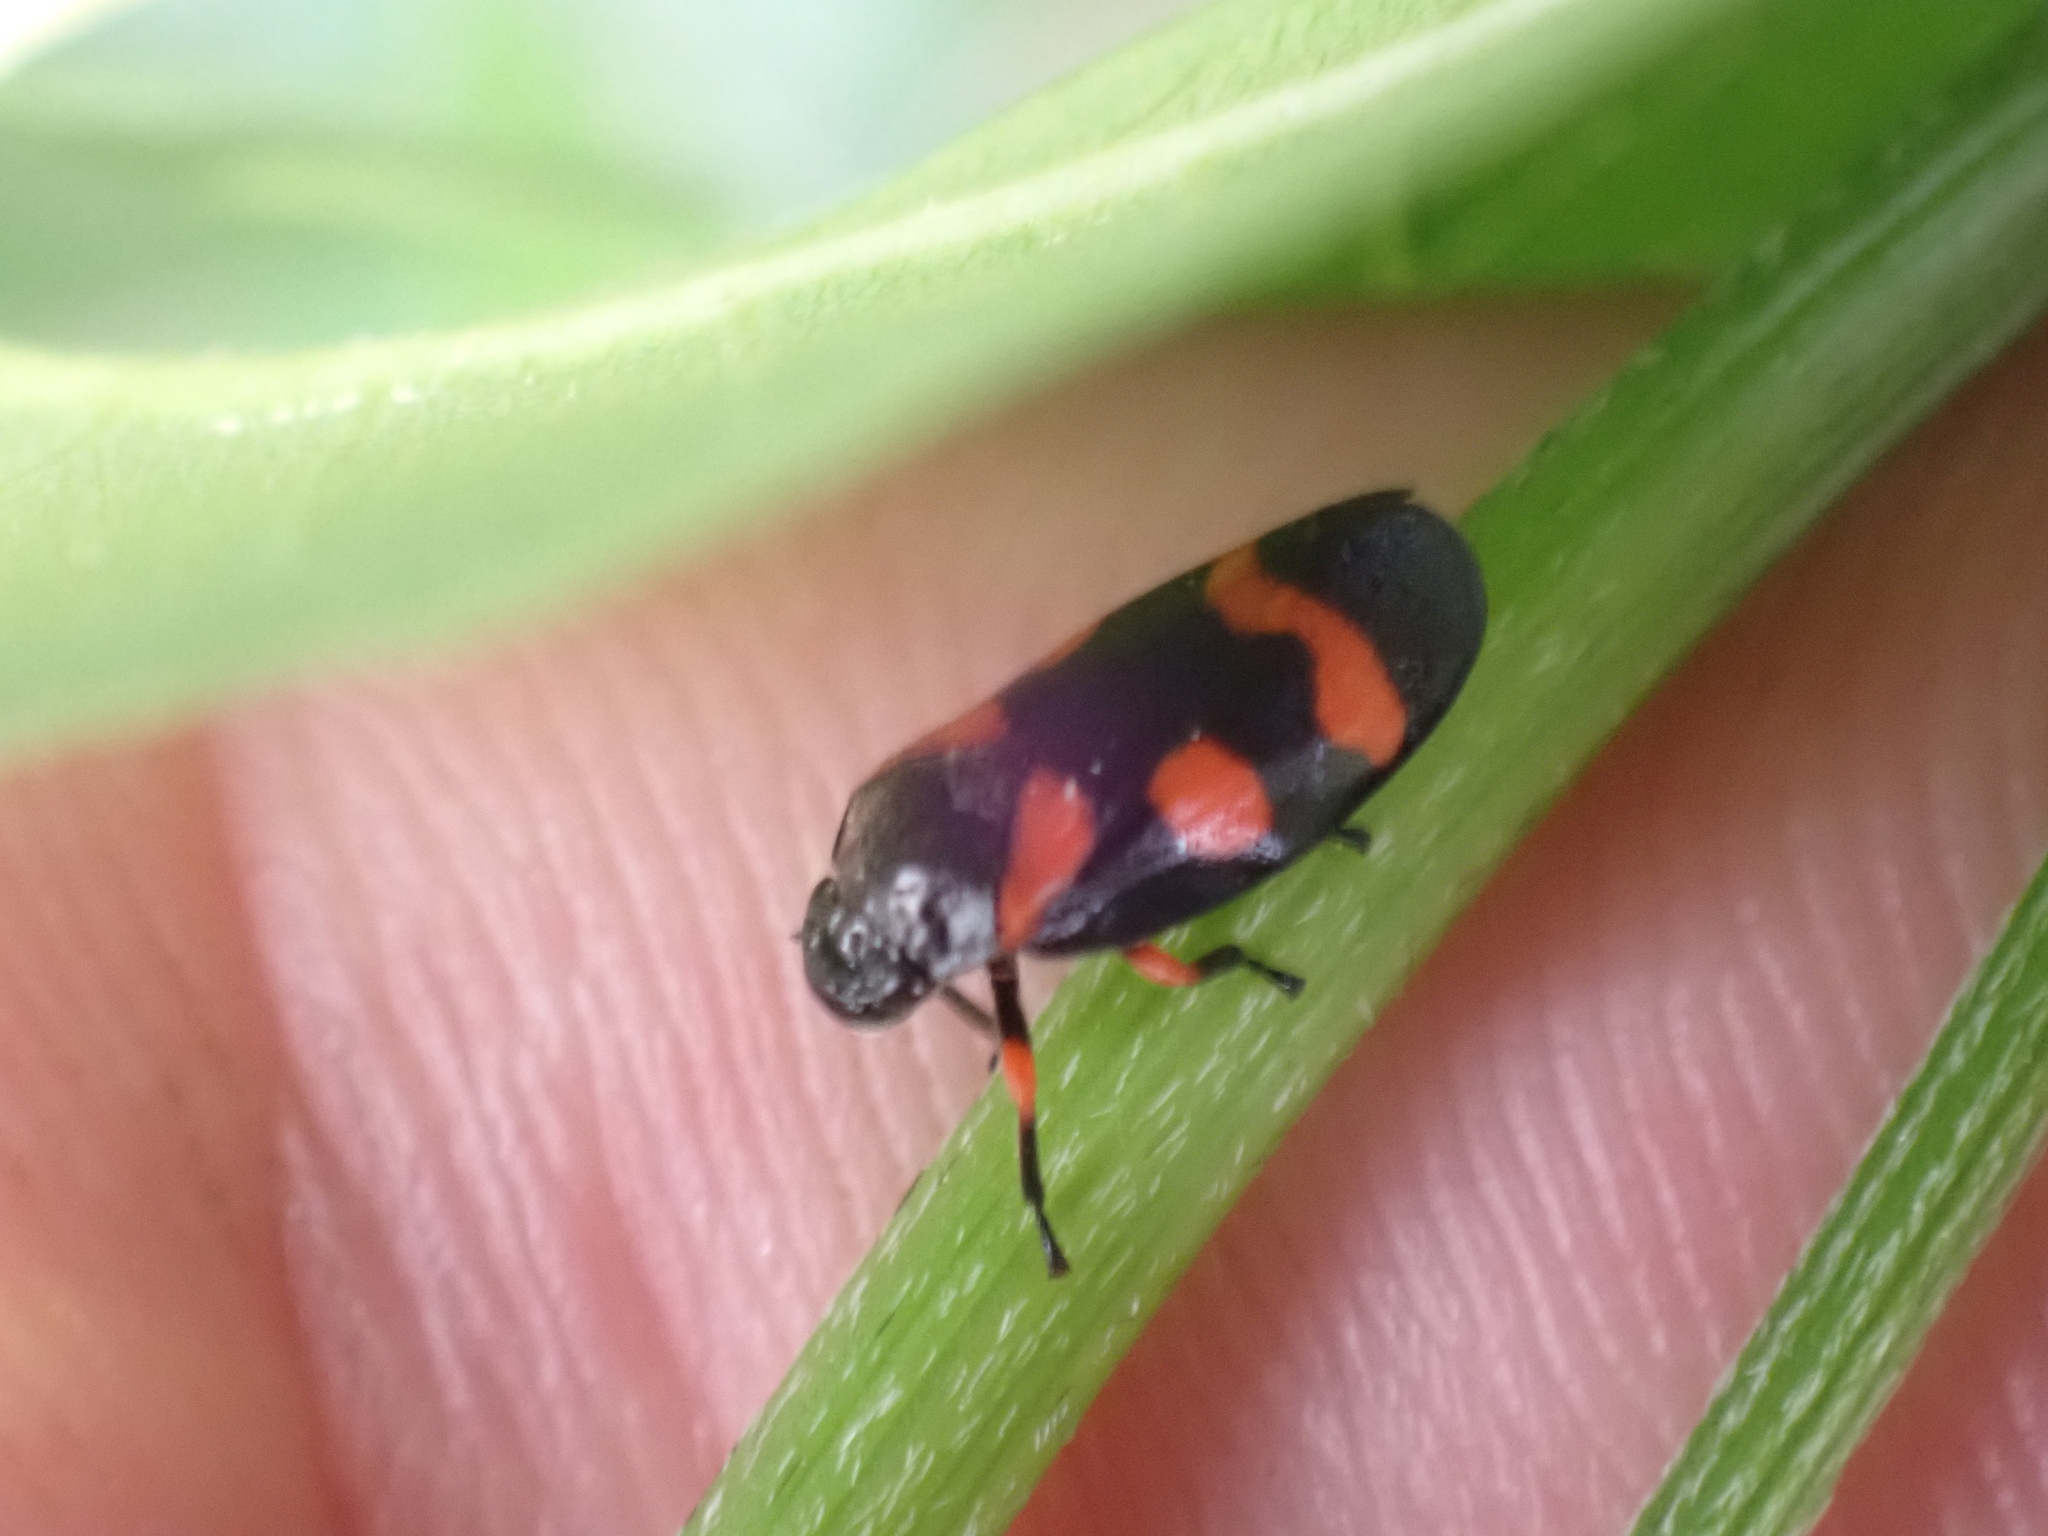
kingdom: Animalia
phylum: Arthropoda
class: Insecta
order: Hemiptera
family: Cercopidae
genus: Cercopis
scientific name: Cercopis intermedia
